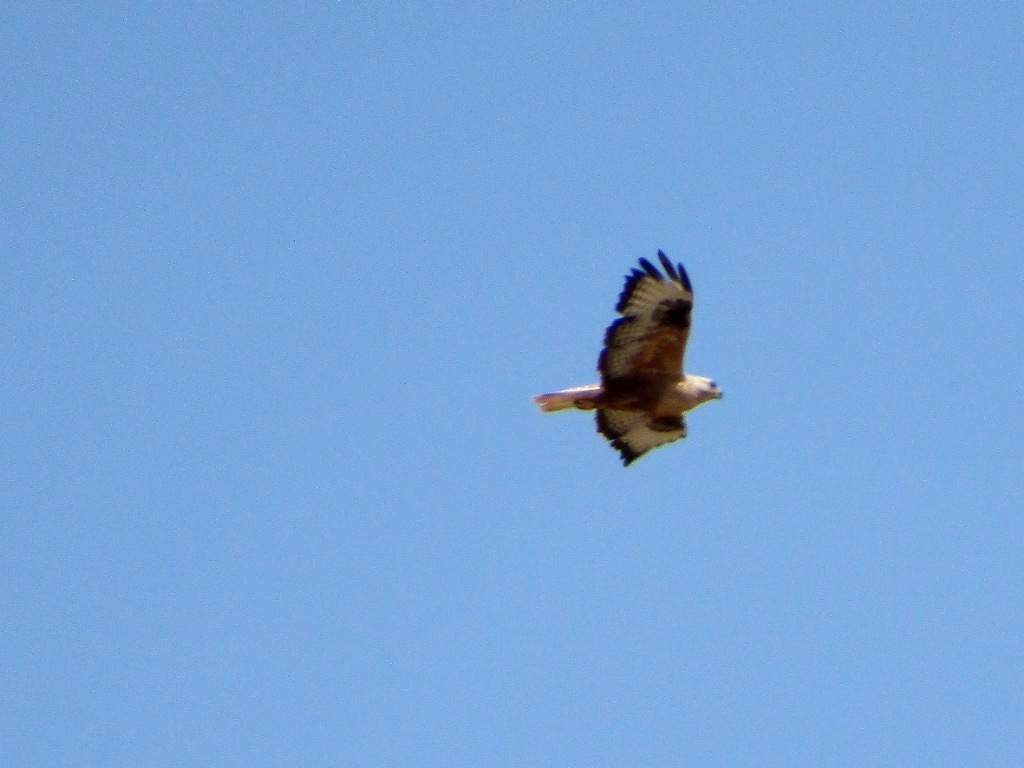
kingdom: Animalia
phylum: Chordata
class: Aves
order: Accipitriformes
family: Accipitridae
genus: Buteo
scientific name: Buteo rufinus
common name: Long-legged buzzard
